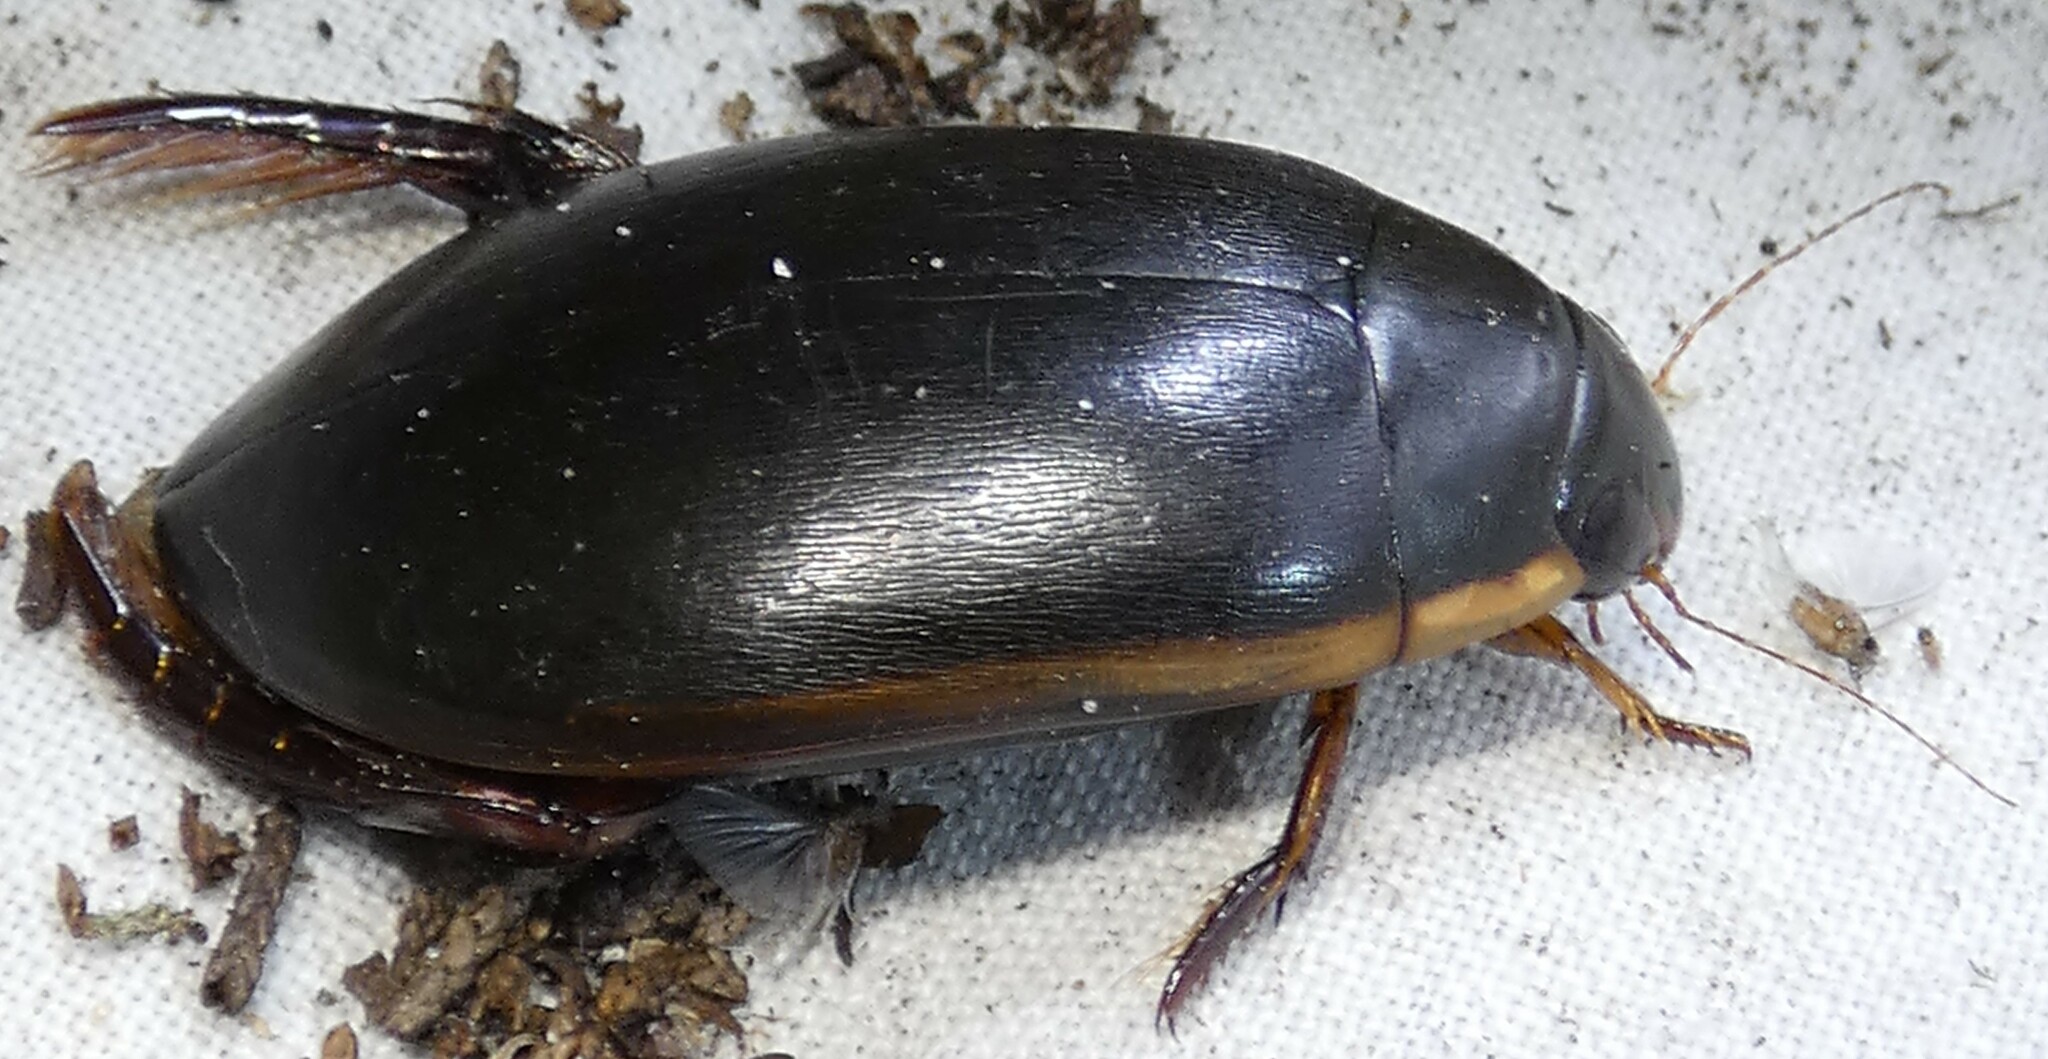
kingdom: Animalia
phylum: Arthropoda
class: Insecta
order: Coleoptera
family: Dytiscidae
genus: Cybister
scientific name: Cybister fimbriolatus
